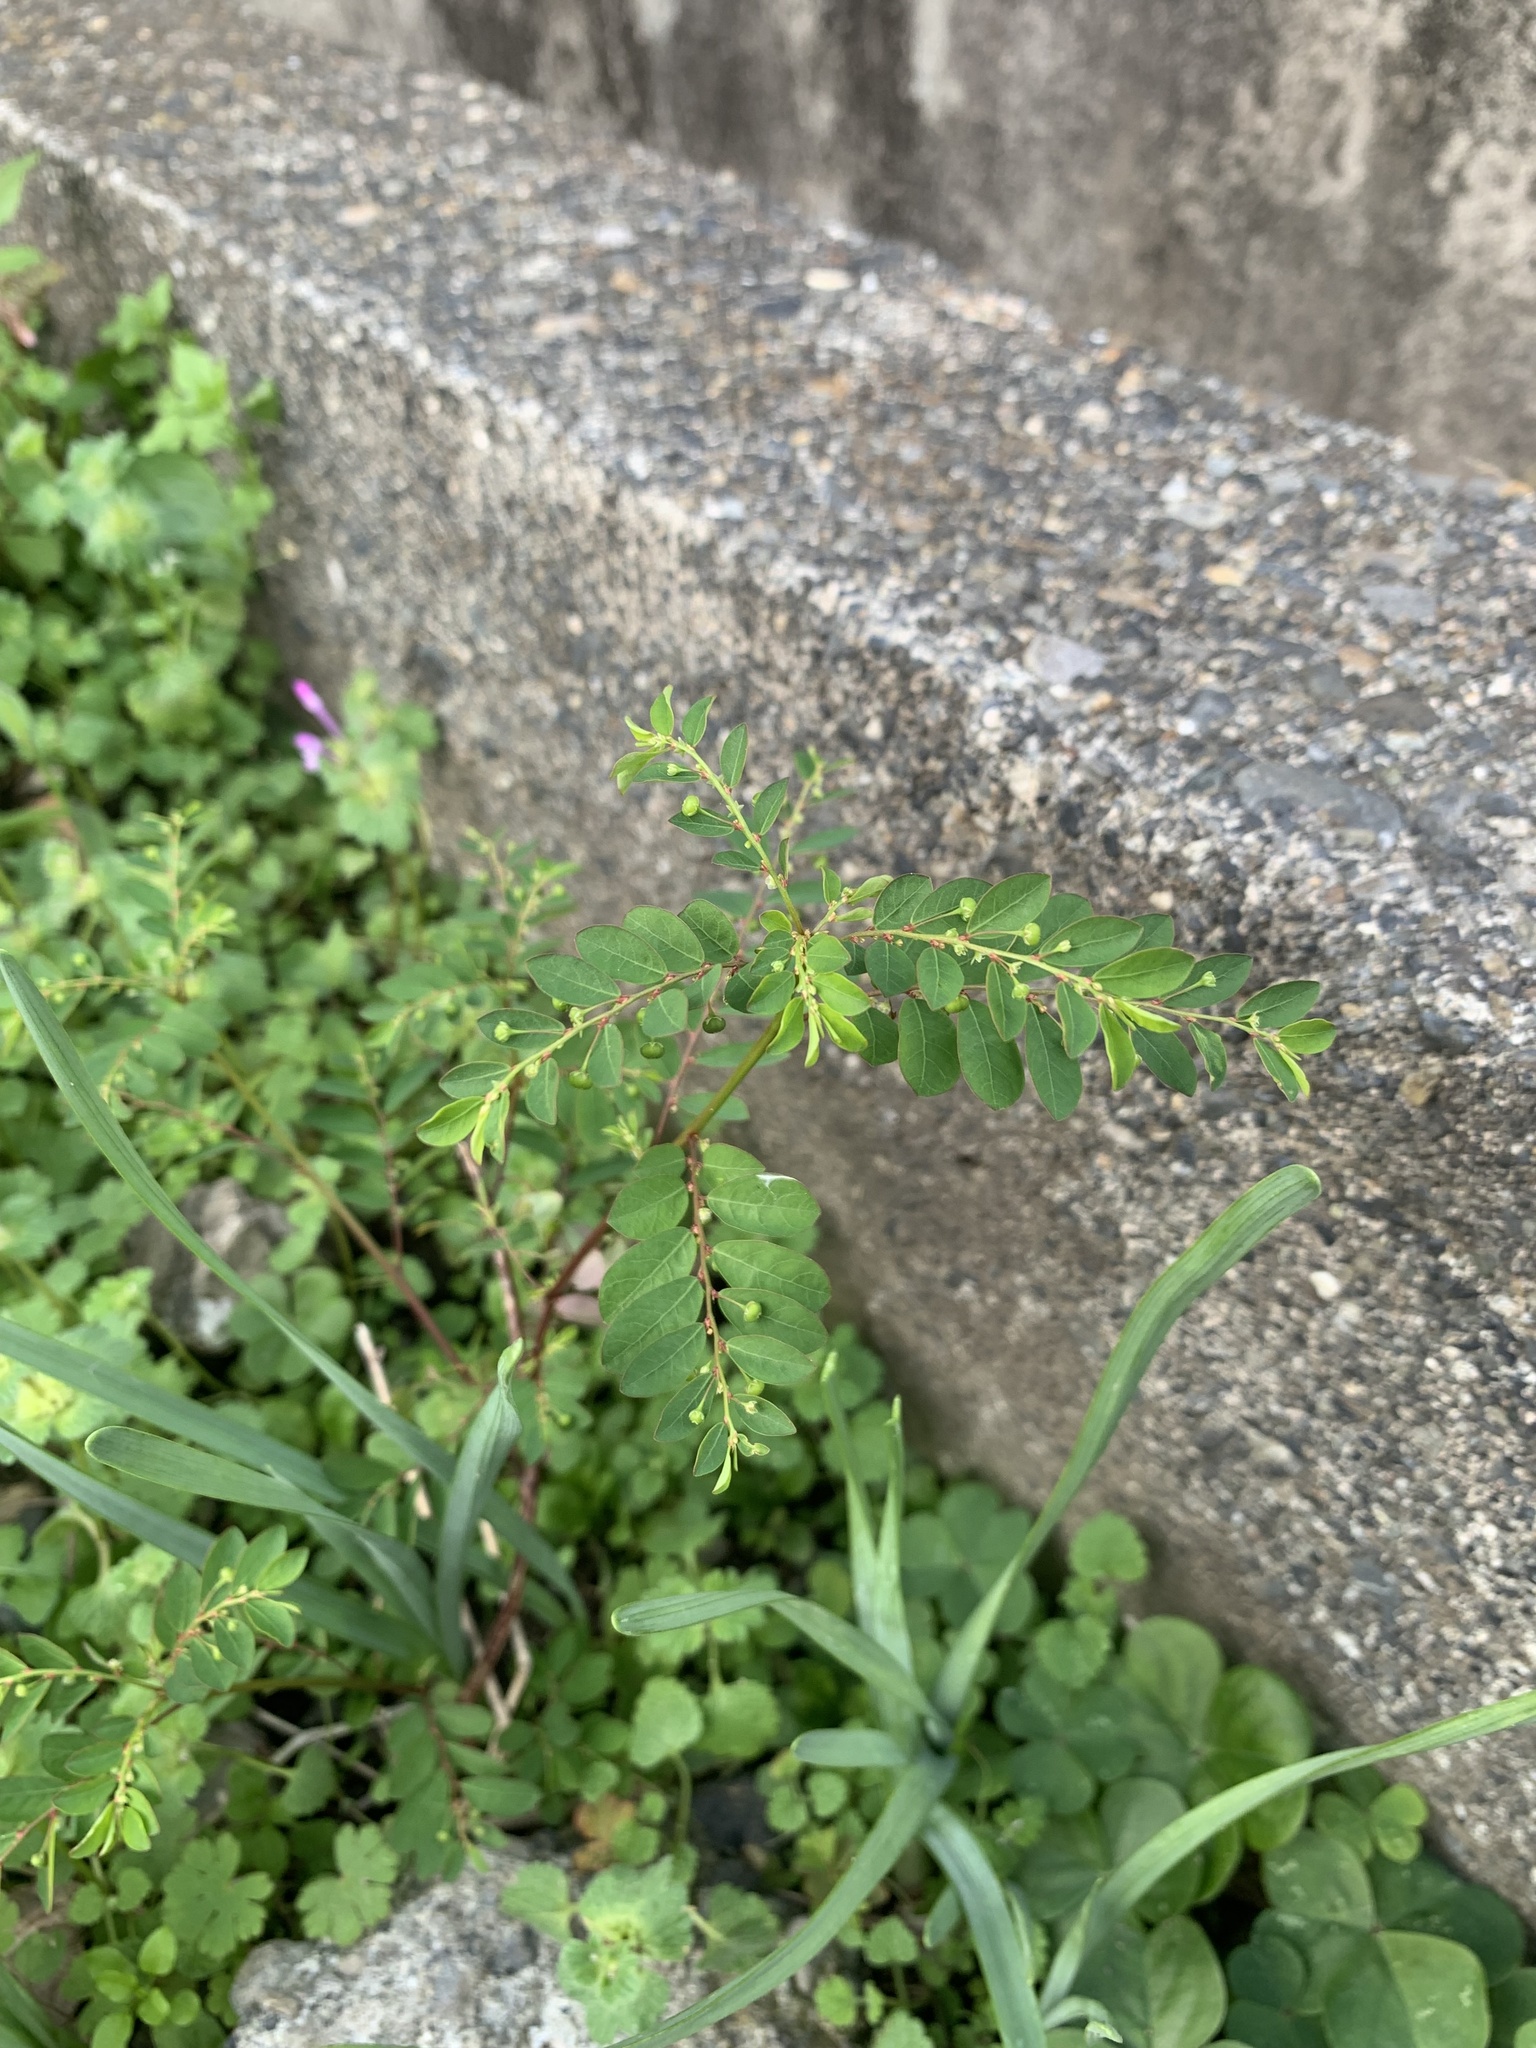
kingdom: Plantae
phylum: Tracheophyta
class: Magnoliopsida
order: Malpighiales
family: Phyllanthaceae
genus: Phyllanthus
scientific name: Phyllanthus tenellus
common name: Mascarene island leaf-flower
